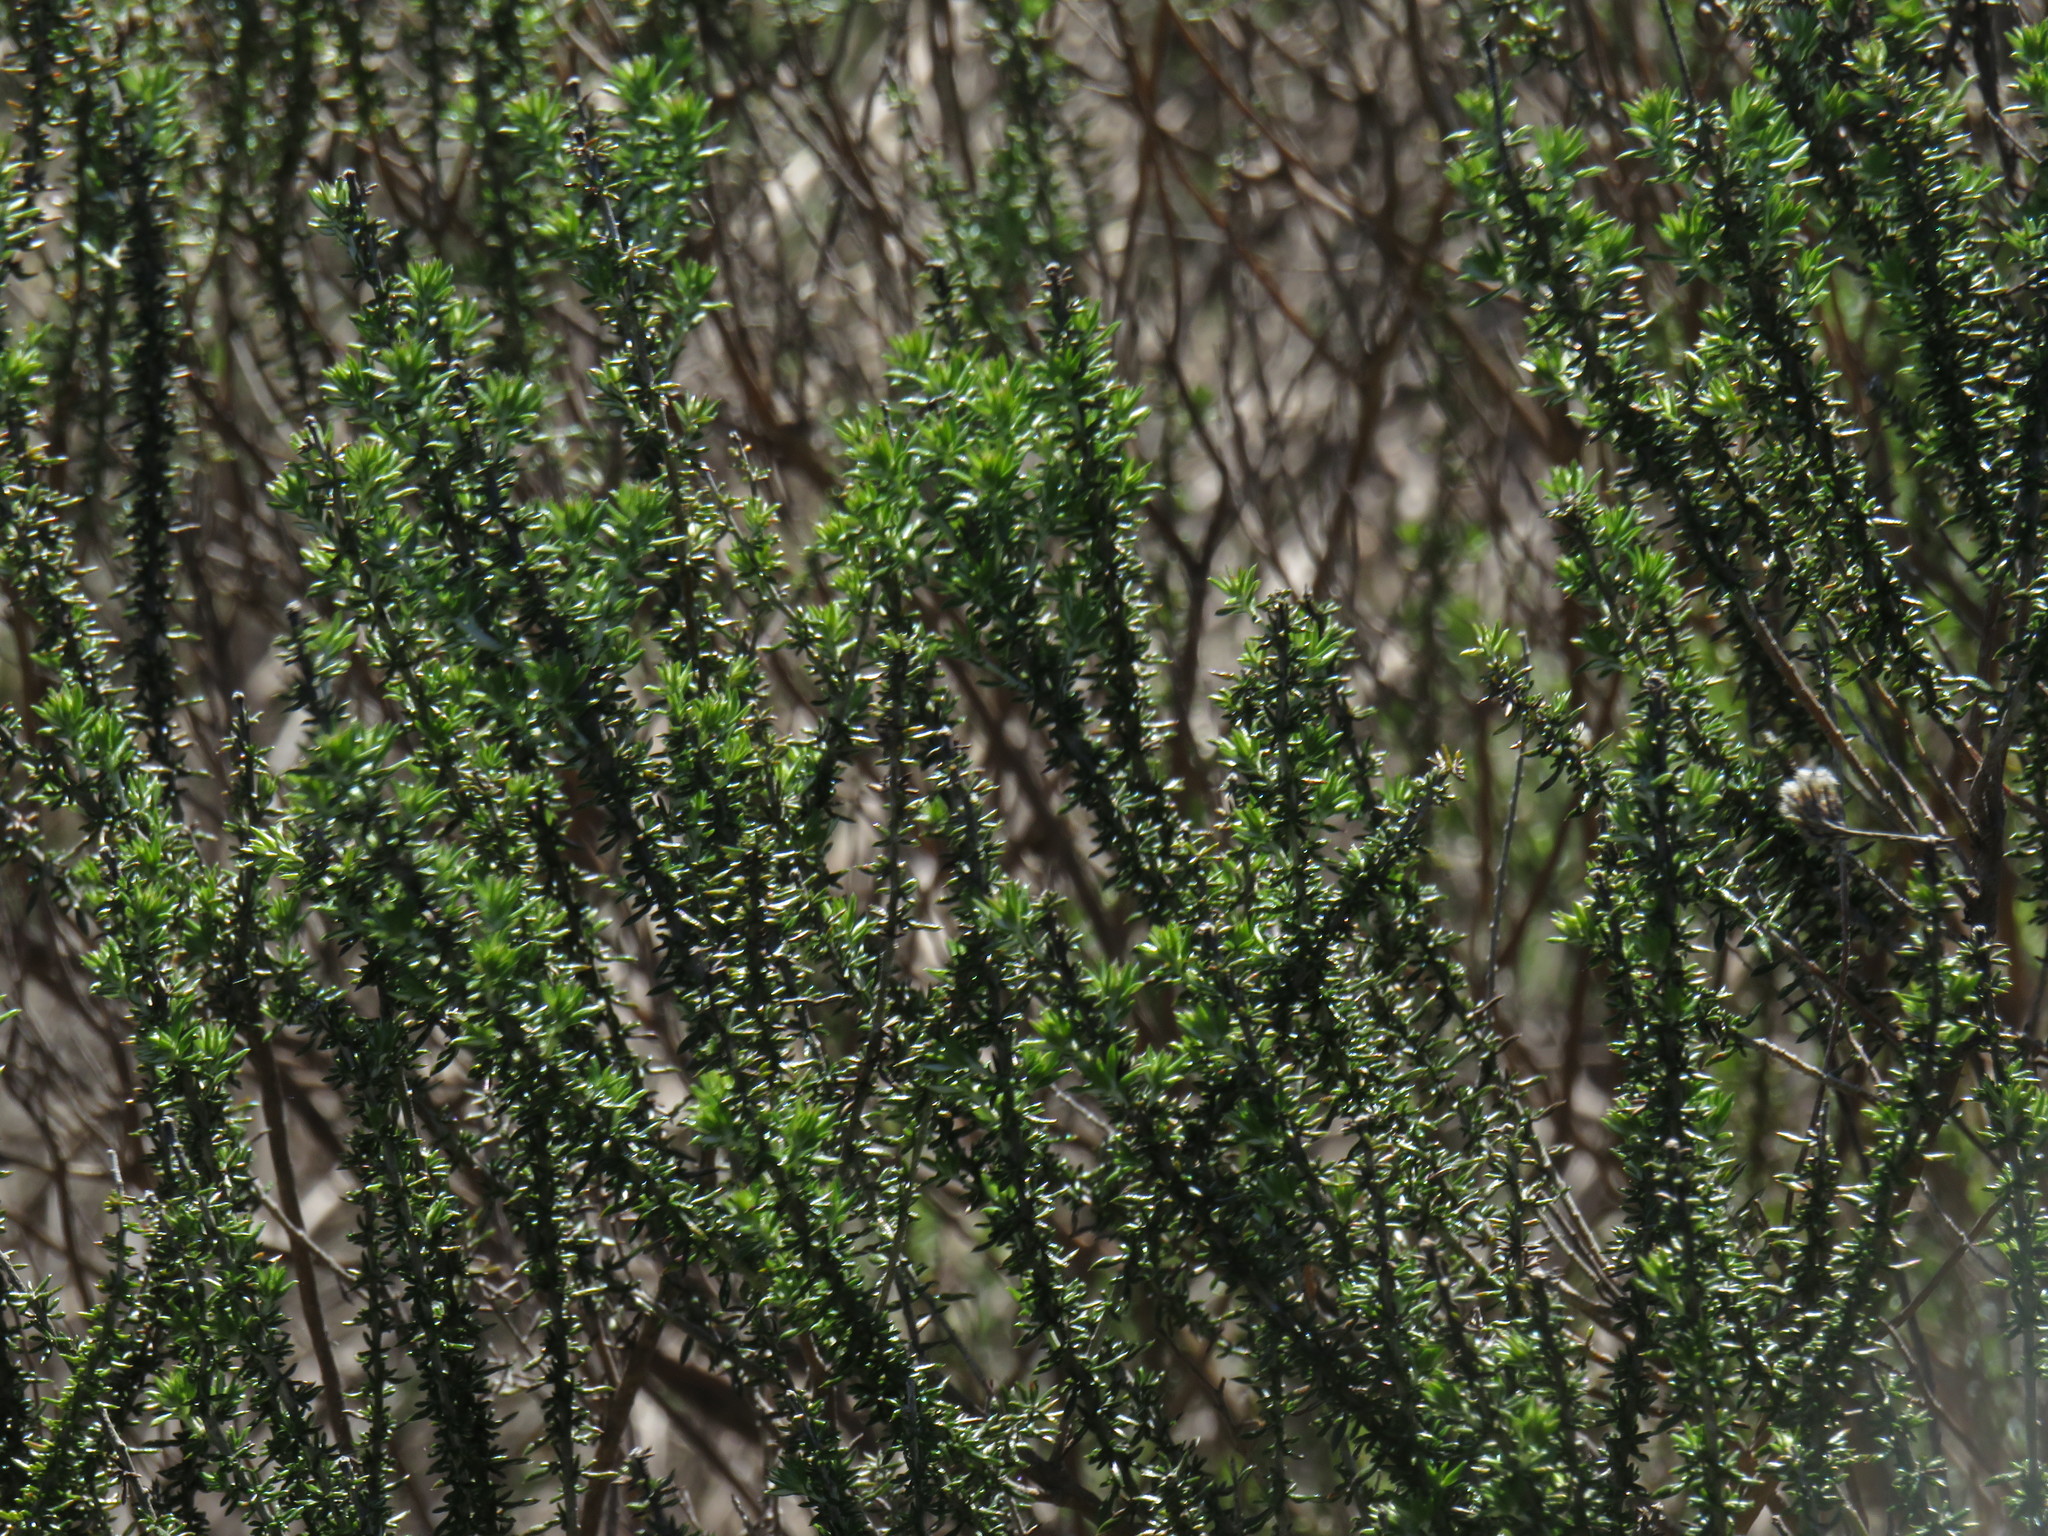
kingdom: Plantae
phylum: Tracheophyta
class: Magnoliopsida
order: Asterales
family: Asteraceae
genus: Metalasia
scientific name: Metalasia densa
